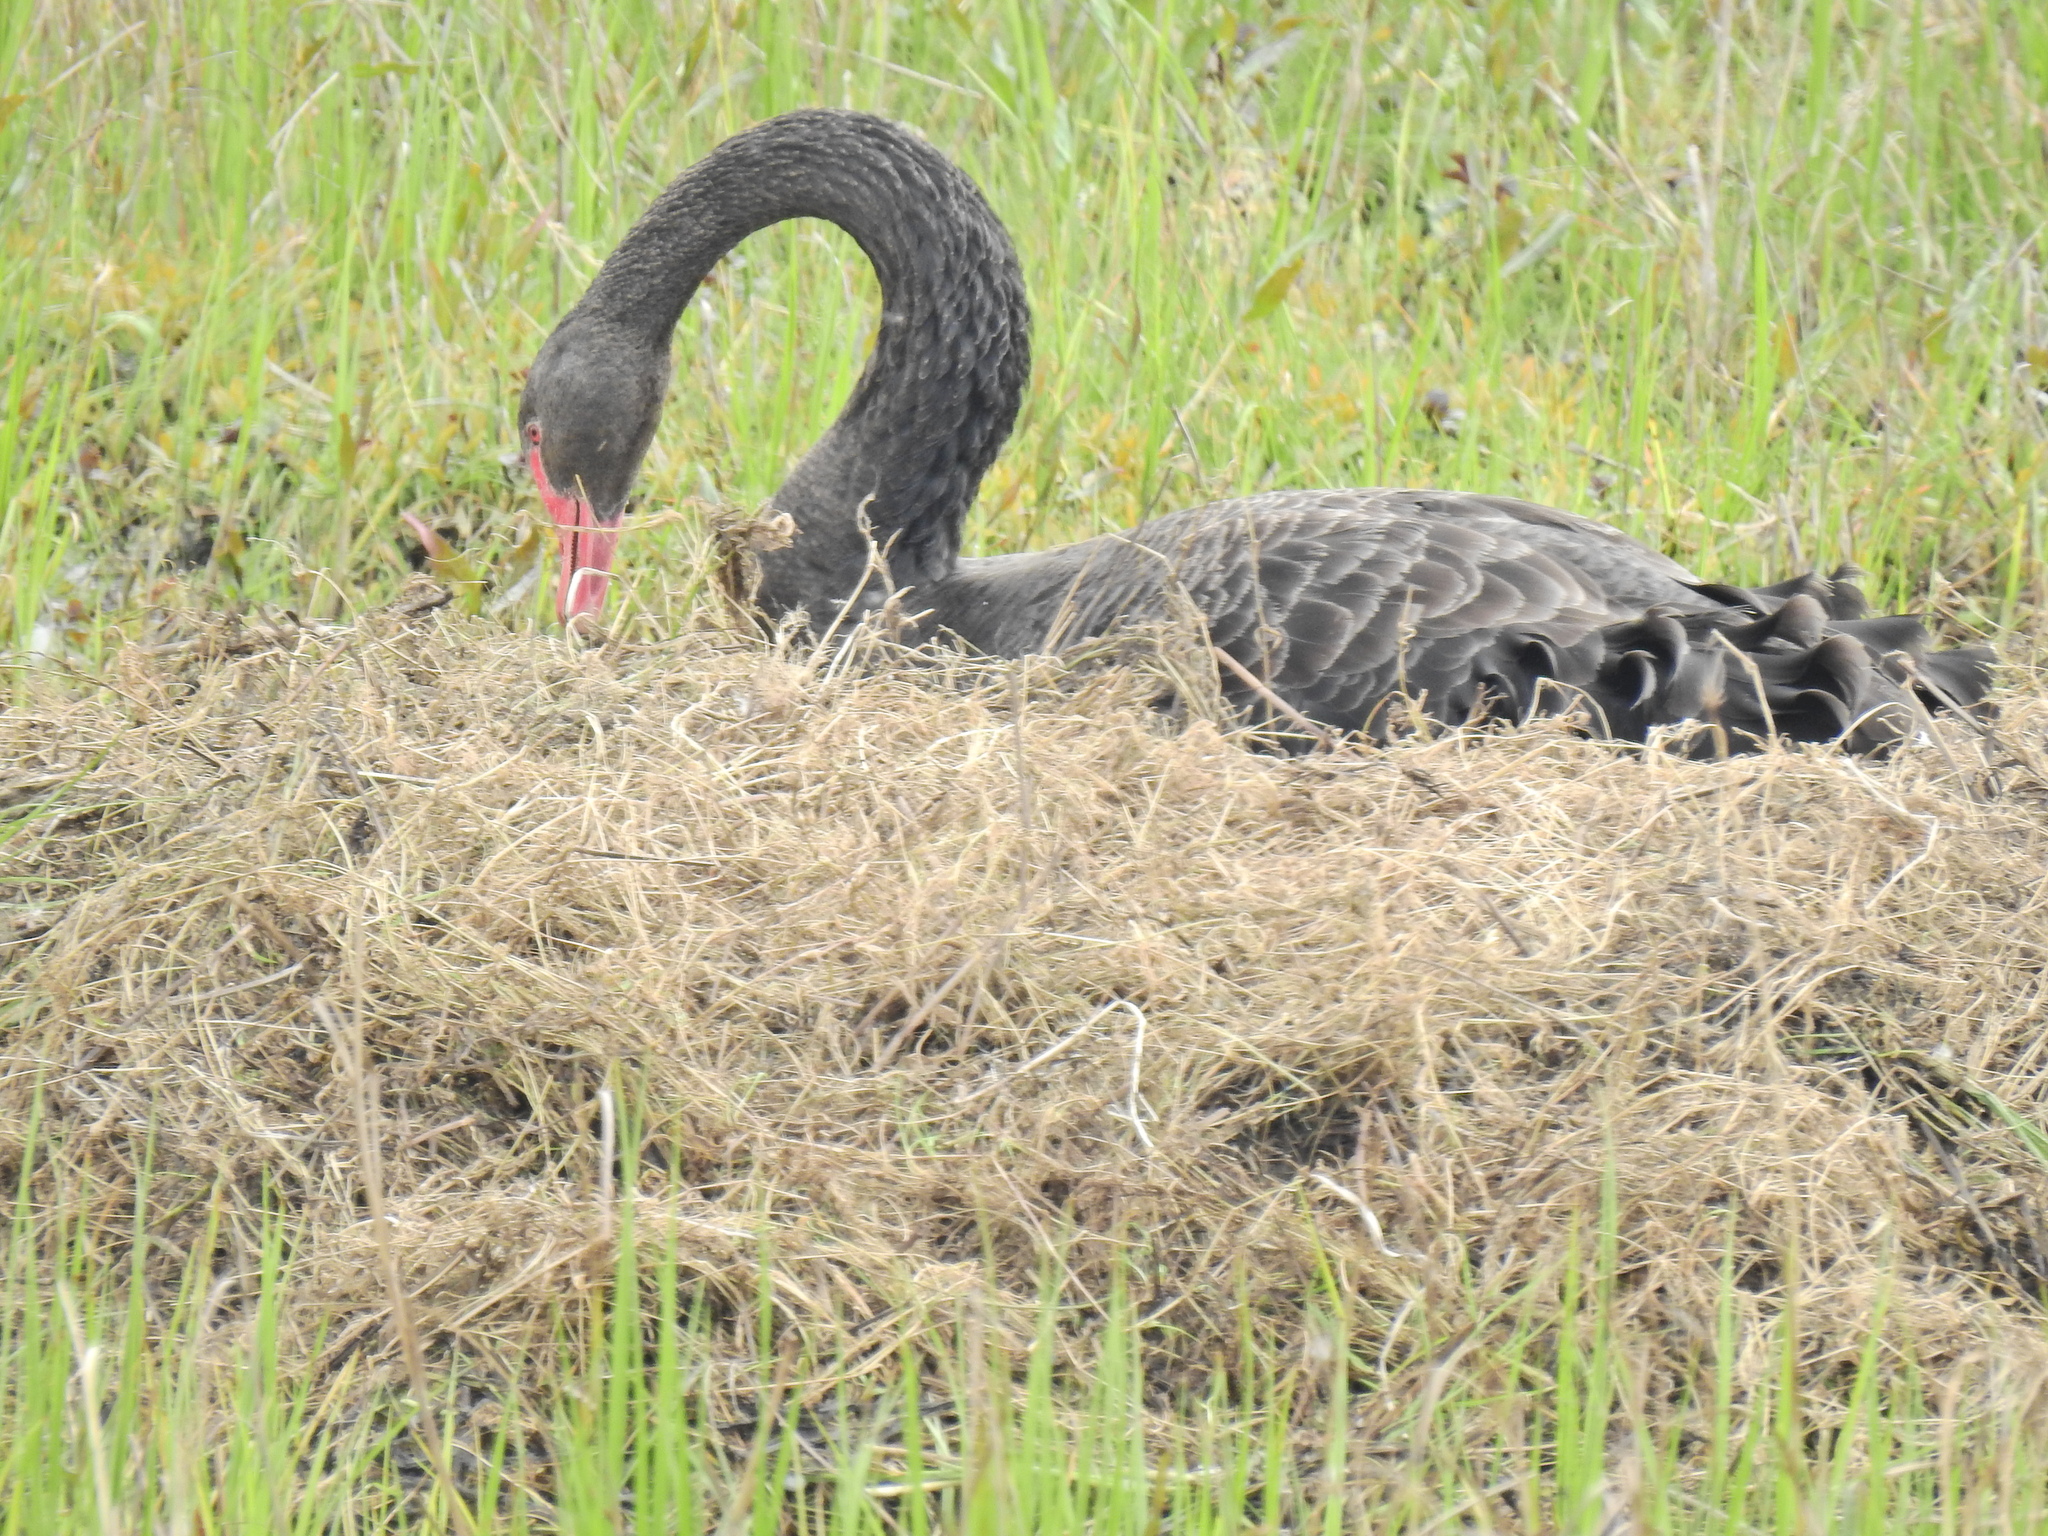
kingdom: Animalia
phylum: Chordata
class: Aves
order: Anseriformes
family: Anatidae
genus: Cygnus
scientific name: Cygnus atratus
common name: Black swan
